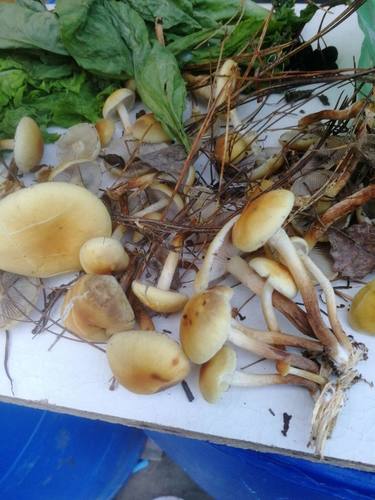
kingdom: Fungi
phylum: Basidiomycota
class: Agaricomycetes
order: Agaricales
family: Strophariaceae
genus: Hypholoma
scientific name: Hypholoma capnoides
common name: Conifer tuft
